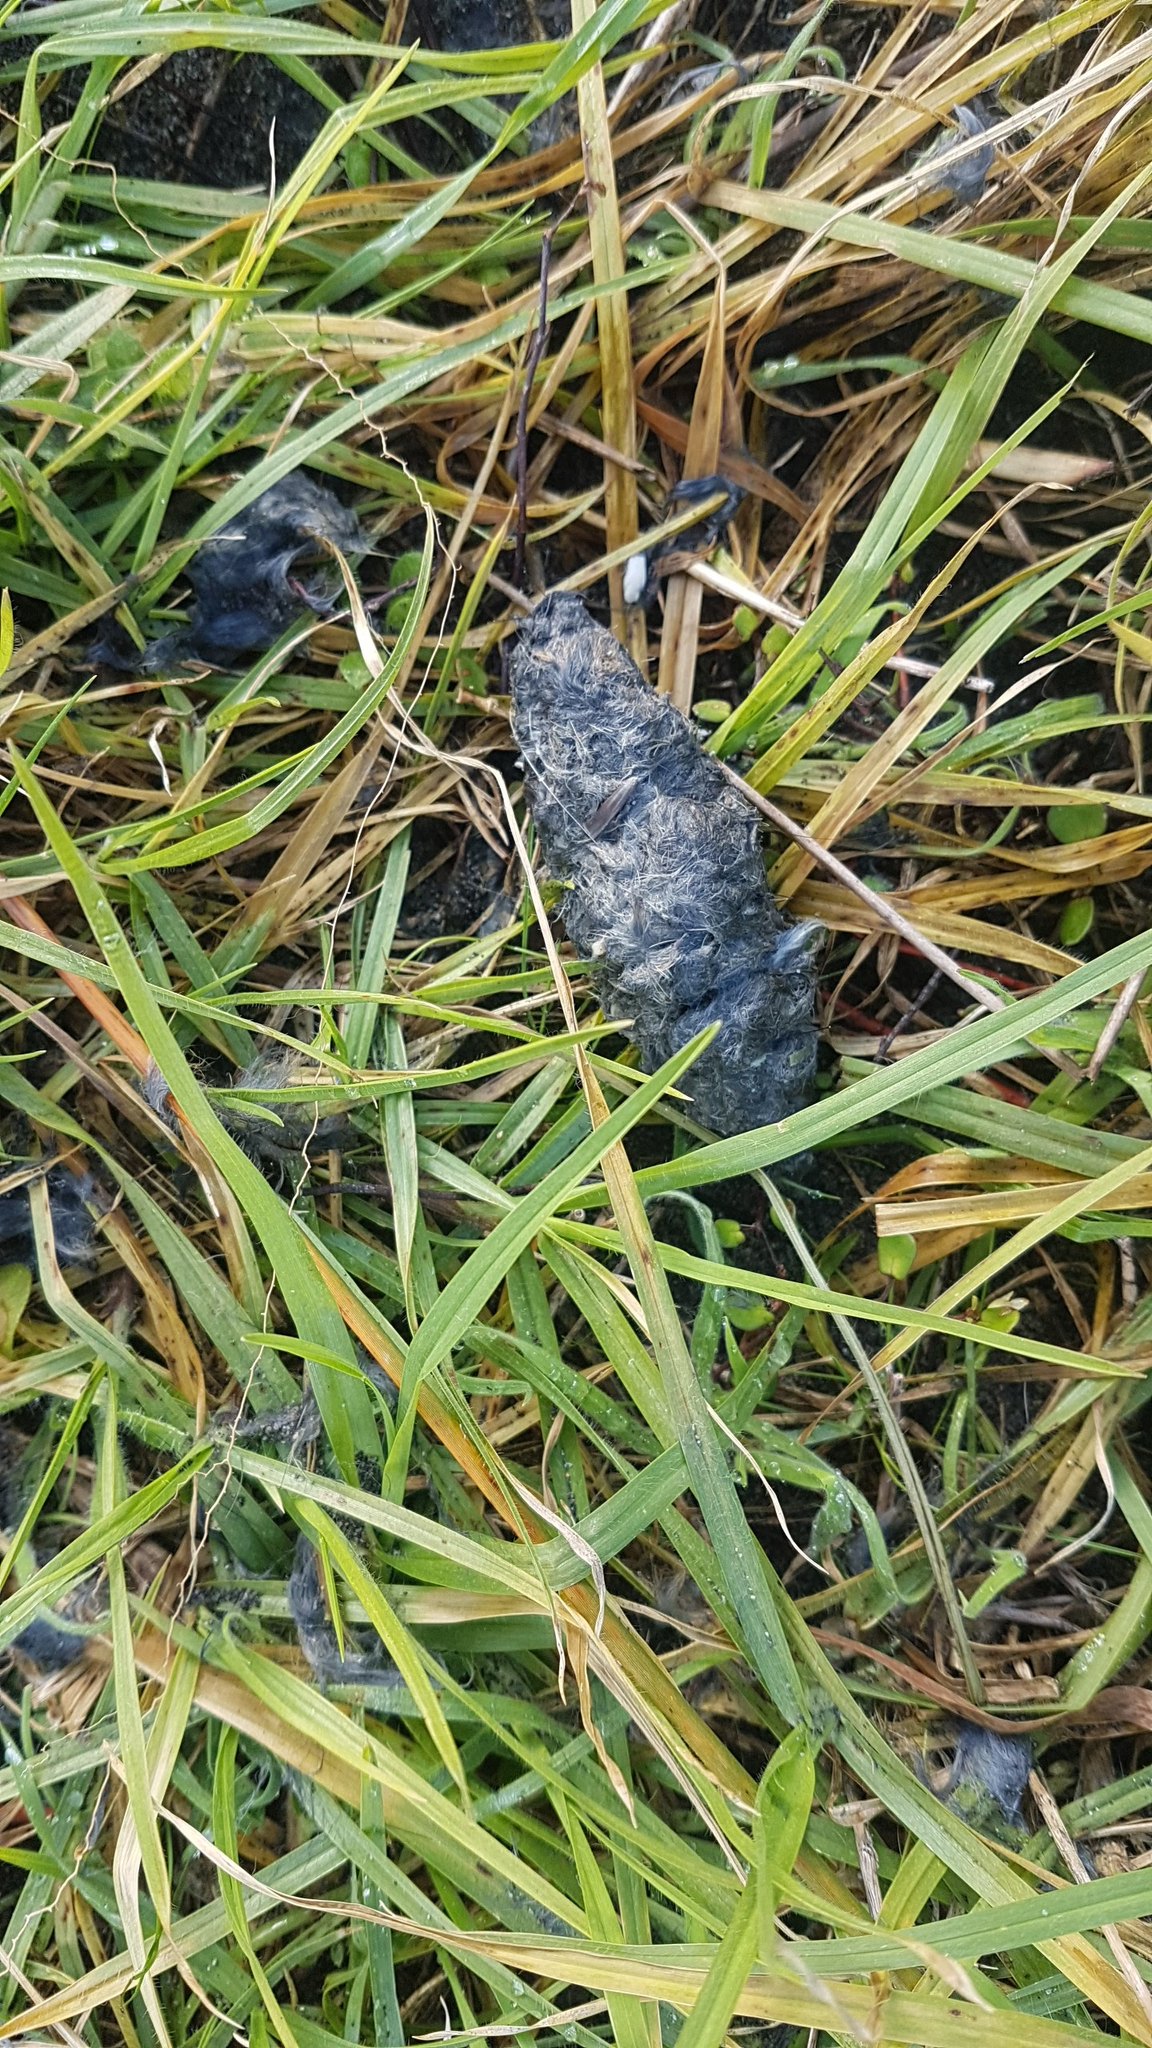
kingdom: Animalia
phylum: Chordata
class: Aves
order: Accipitriformes
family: Accipitridae
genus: Circus
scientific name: Circus approximans
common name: Swamp harrier
